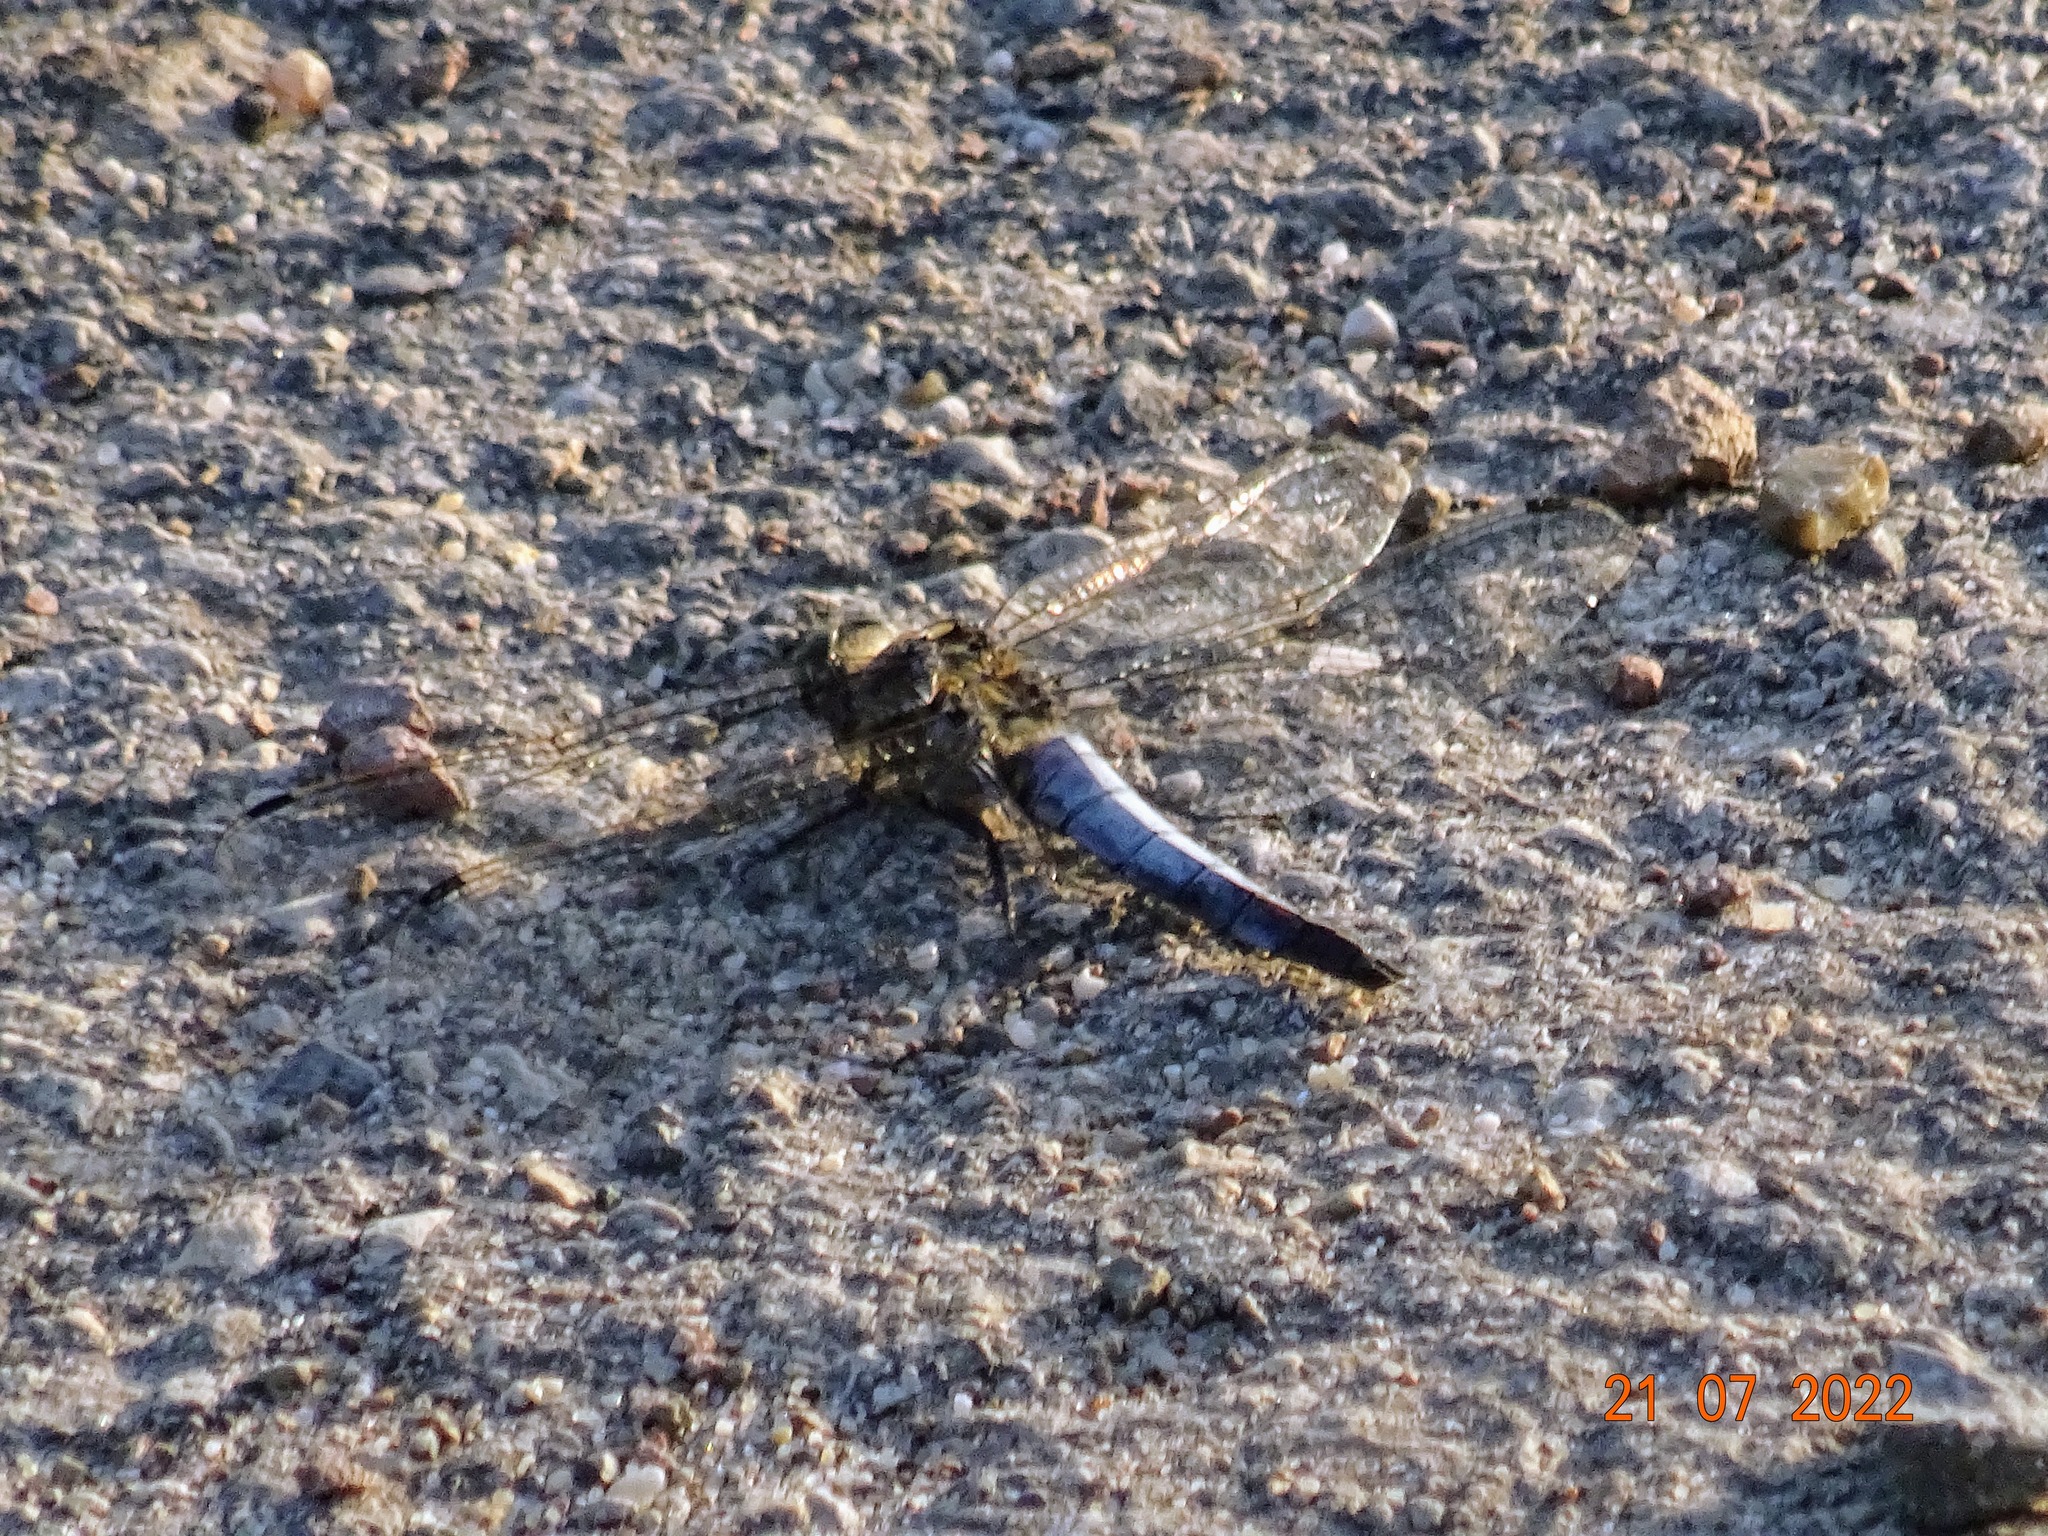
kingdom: Animalia
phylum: Arthropoda
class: Insecta
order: Odonata
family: Libellulidae
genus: Orthetrum
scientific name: Orthetrum cancellatum
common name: Black-tailed skimmer
